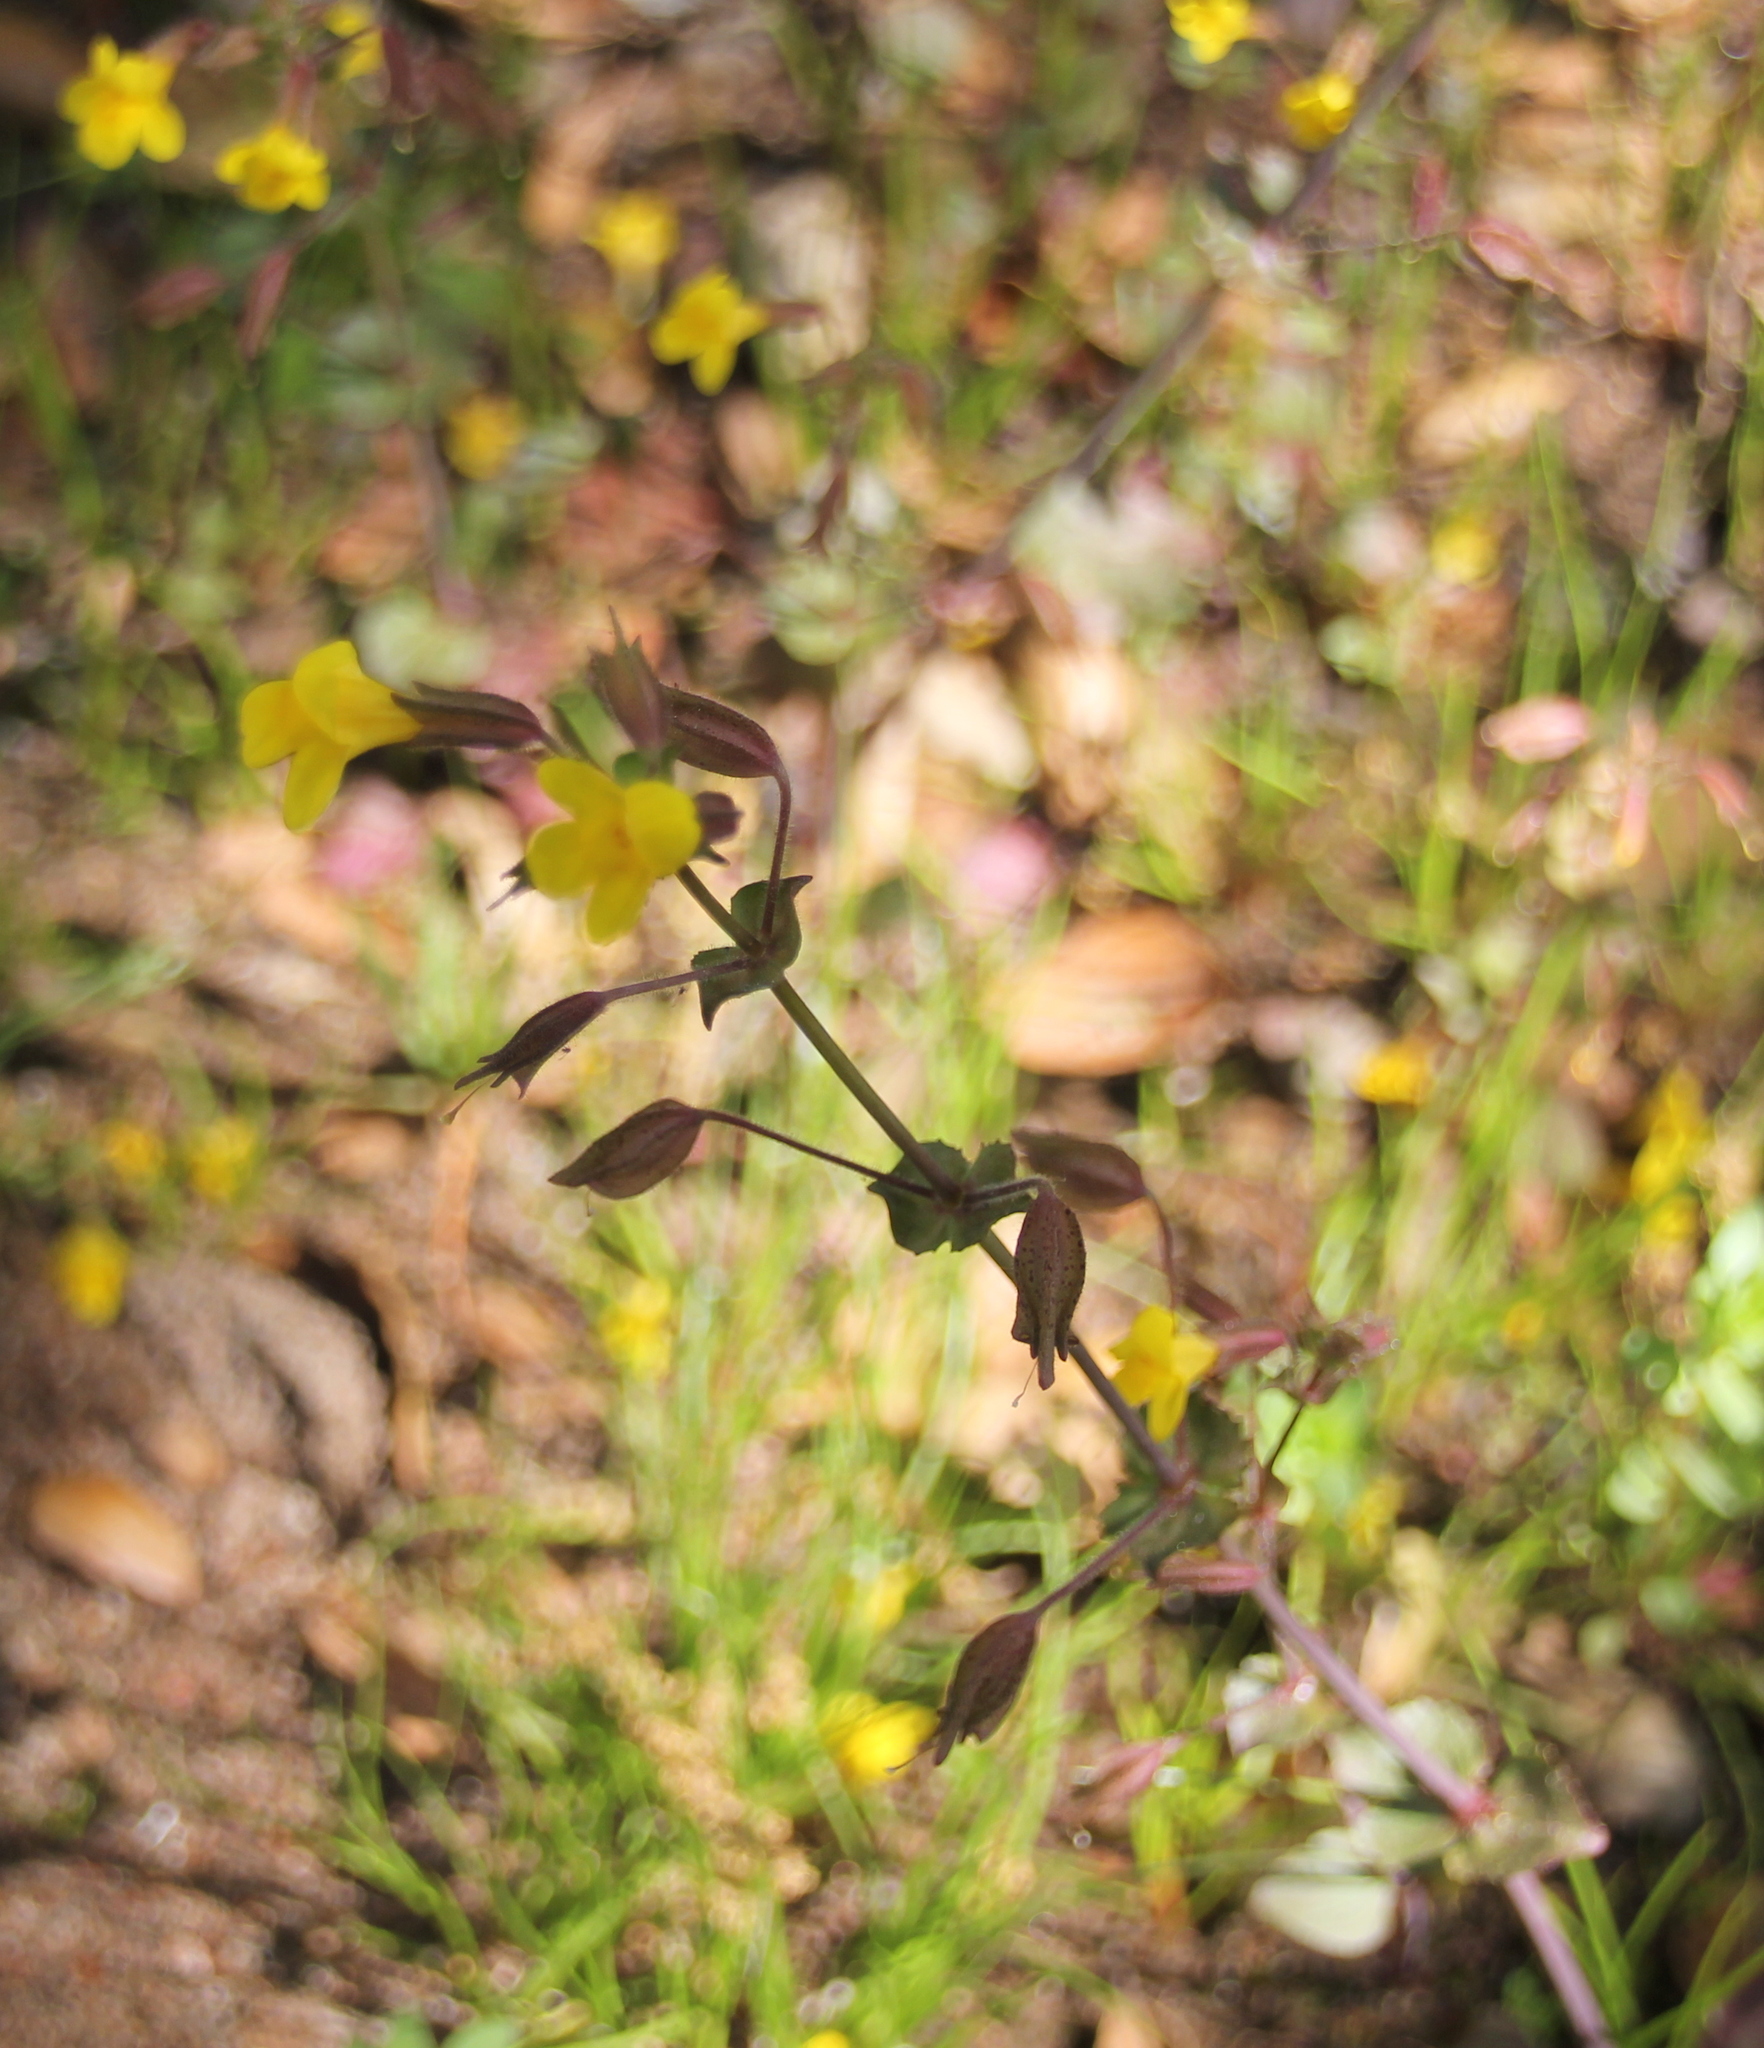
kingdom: Plantae
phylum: Tracheophyta
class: Magnoliopsida
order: Lamiales
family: Phrymaceae
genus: Erythranthe
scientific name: Erythranthe guttata
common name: Monkeyflower
